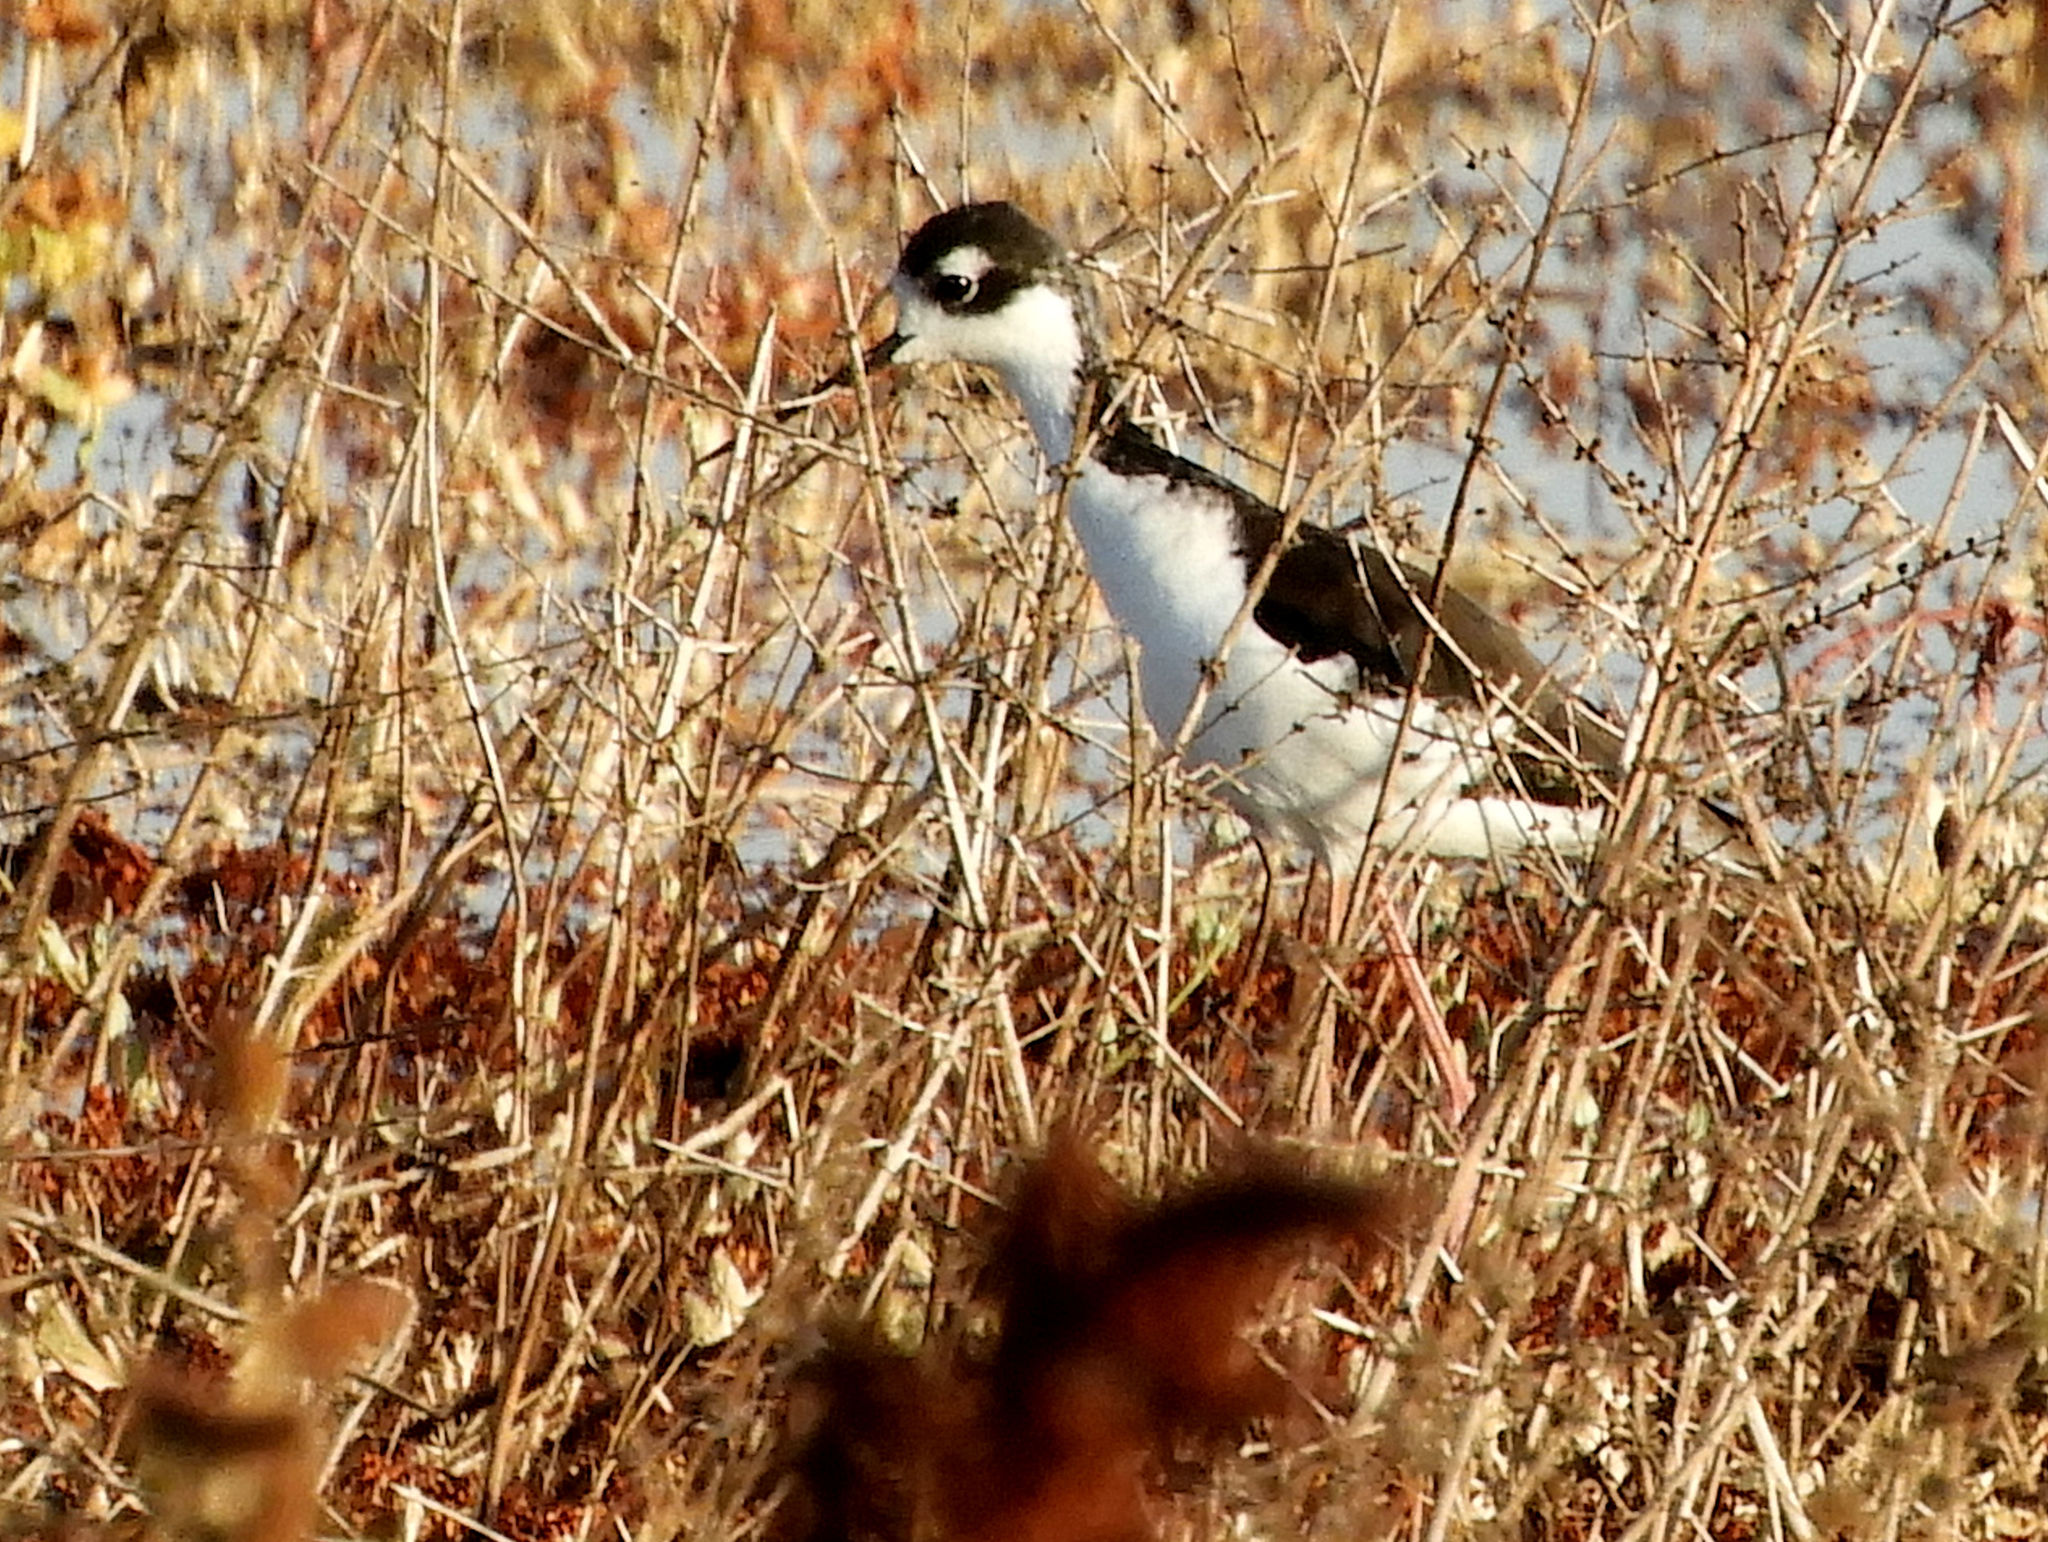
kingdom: Animalia
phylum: Chordata
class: Aves
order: Charadriiformes
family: Recurvirostridae
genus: Himantopus
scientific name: Himantopus mexicanus
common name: Black-necked stilt
